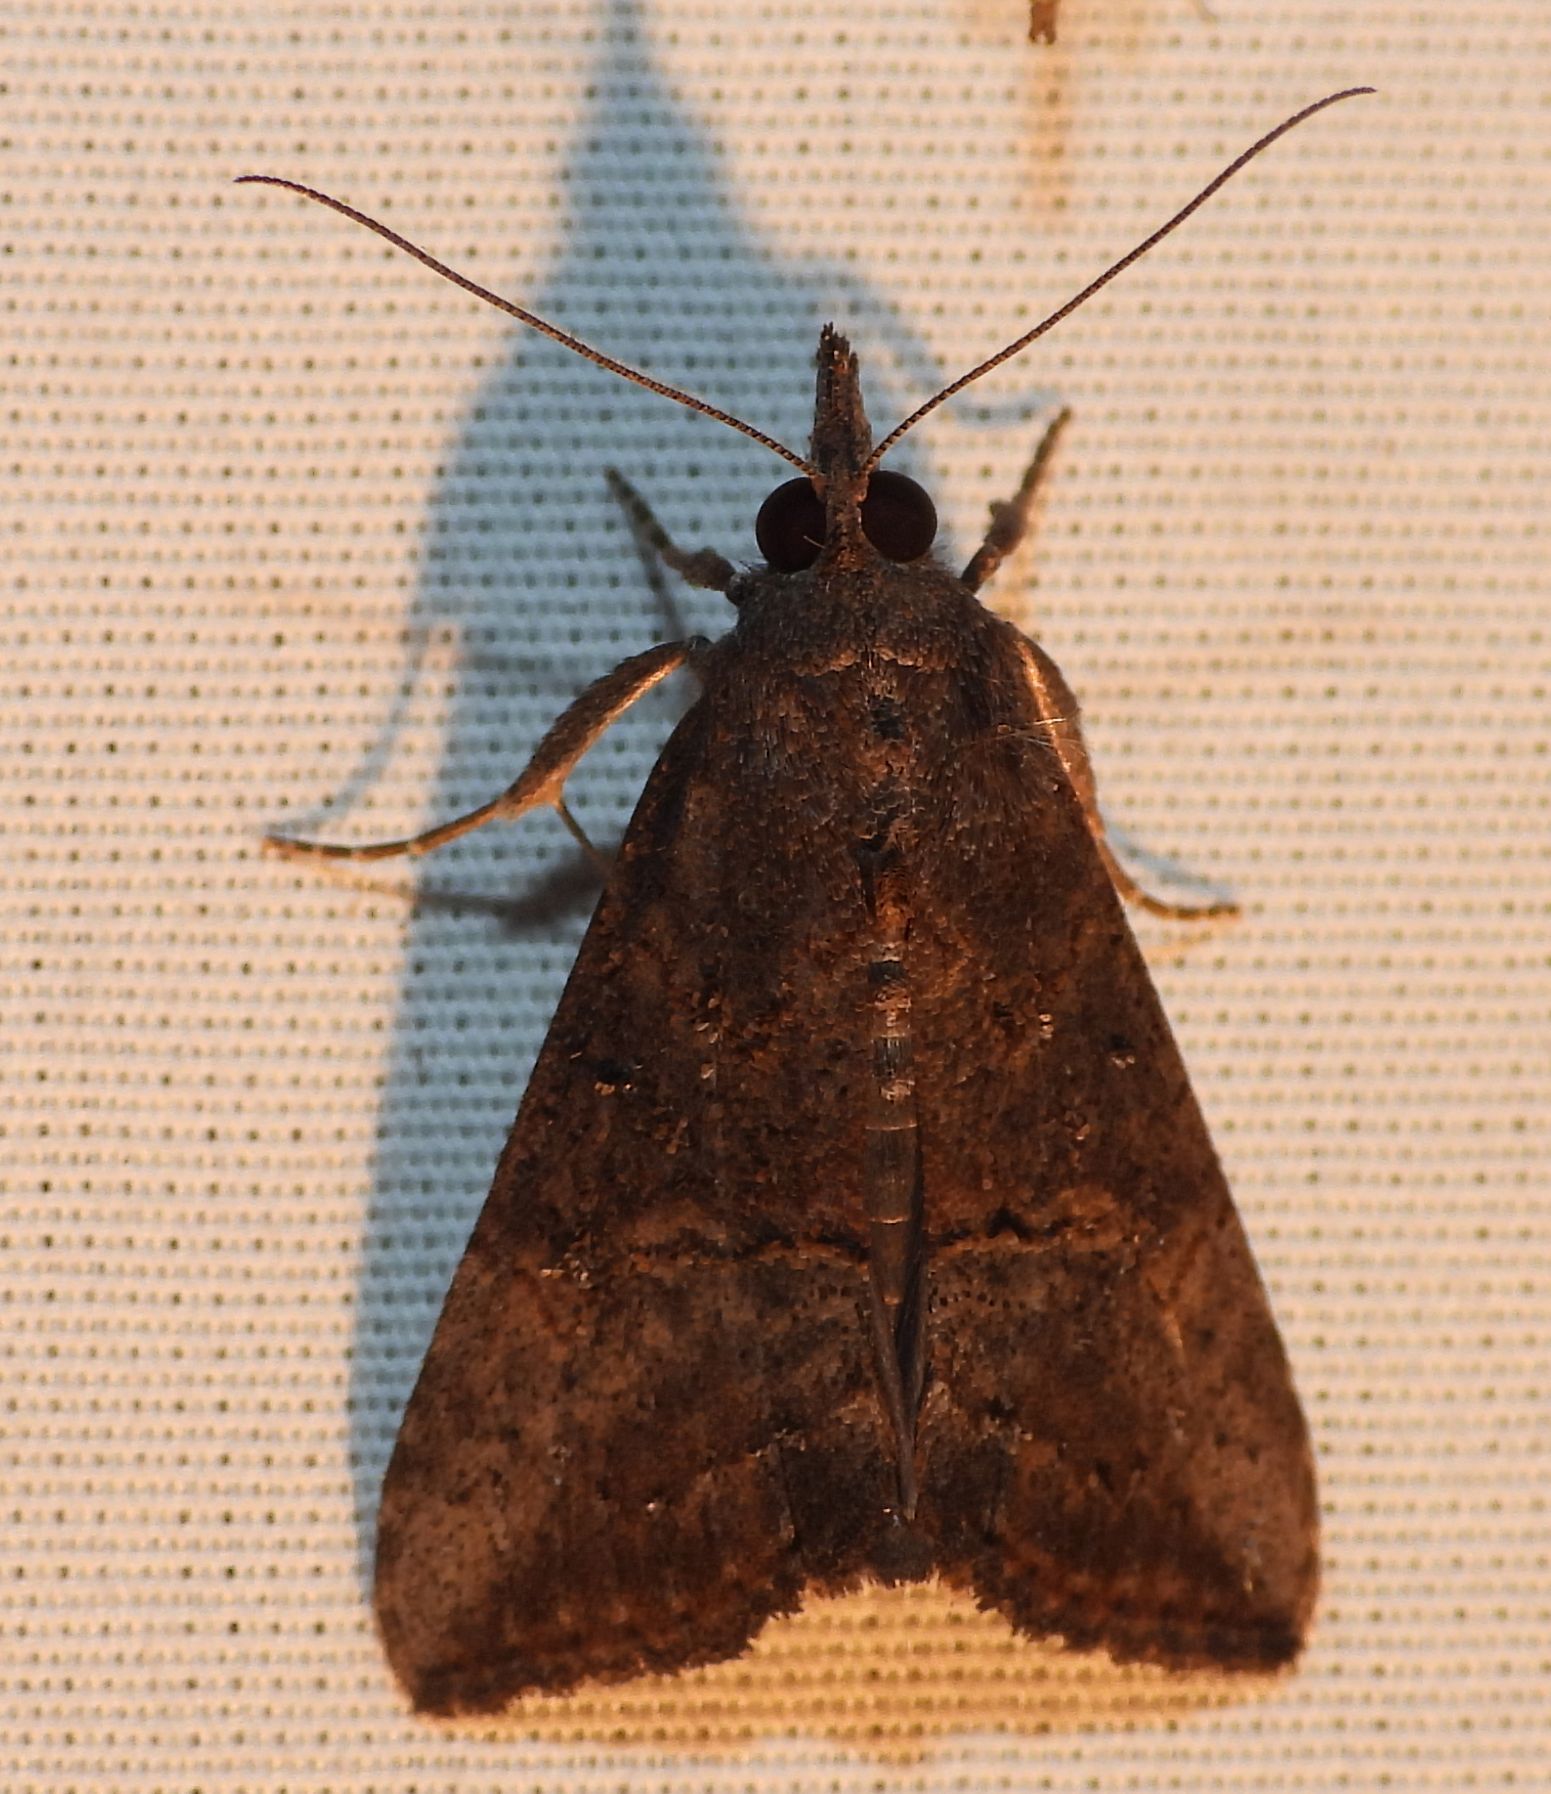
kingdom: Animalia
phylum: Arthropoda
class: Insecta
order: Lepidoptera
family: Erebidae
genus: Hypena
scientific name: Hypena scabra
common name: Green cloverworm
